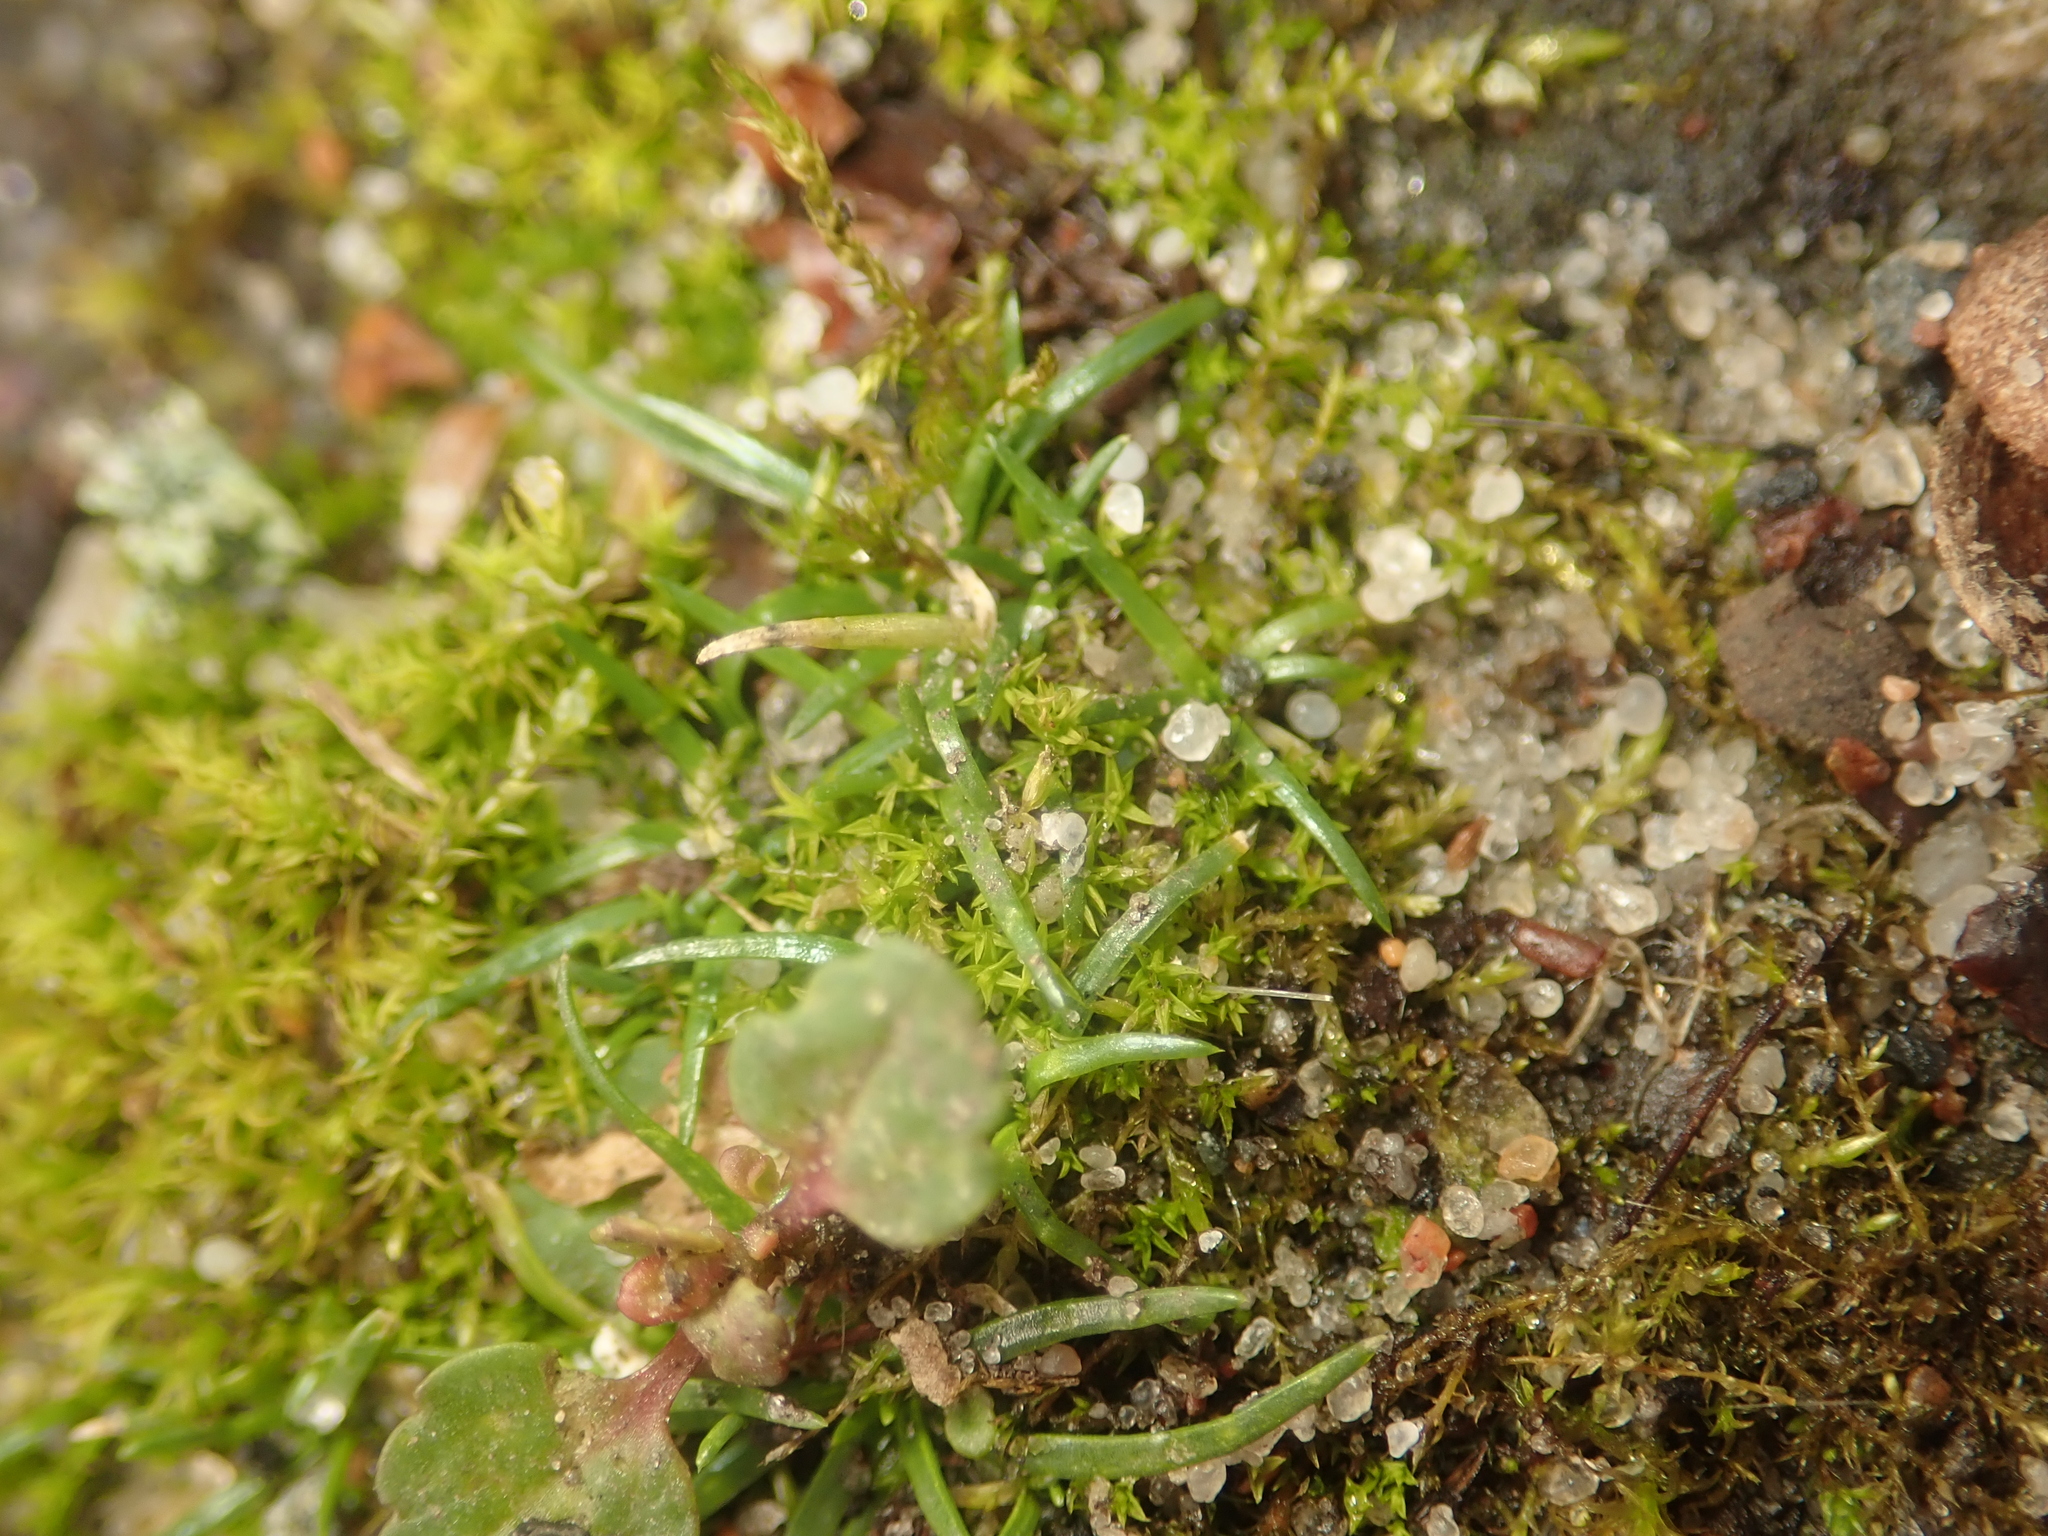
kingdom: Plantae
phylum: Tracheophyta
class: Magnoliopsida
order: Caryophyllales
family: Caryophyllaceae
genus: Sagina
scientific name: Sagina procumbens
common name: Procumbent pearlwort
